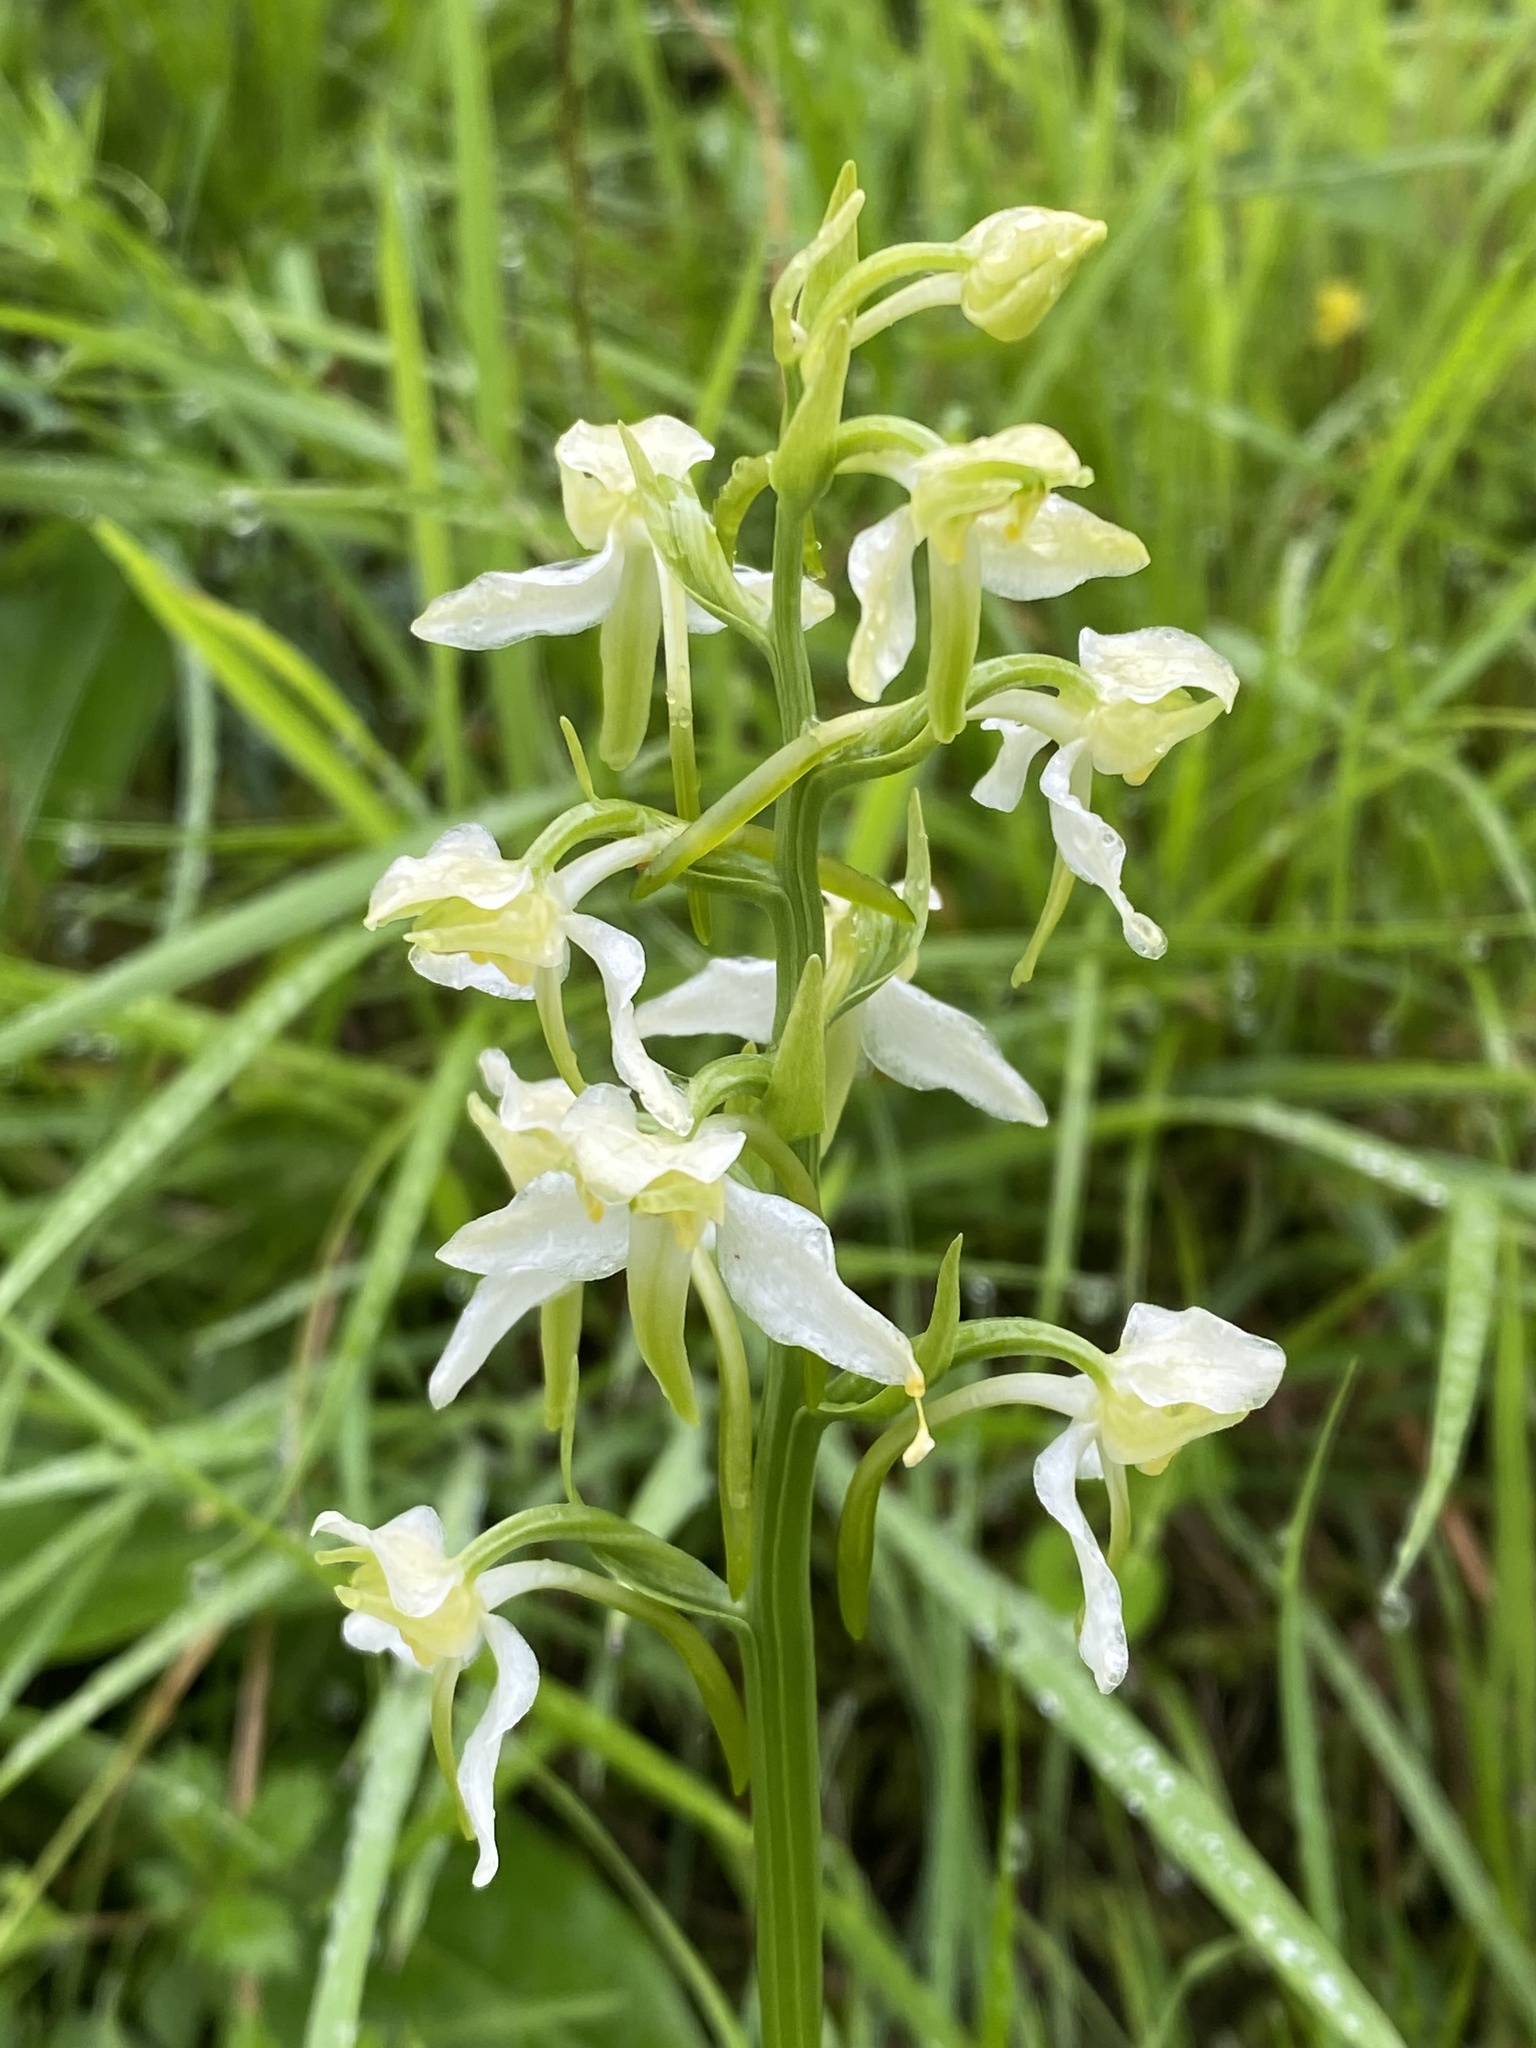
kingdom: Plantae
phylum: Tracheophyta
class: Liliopsida
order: Asparagales
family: Orchidaceae
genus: Platanthera
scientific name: Platanthera chlorantha
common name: Greater butterfly-orchid
